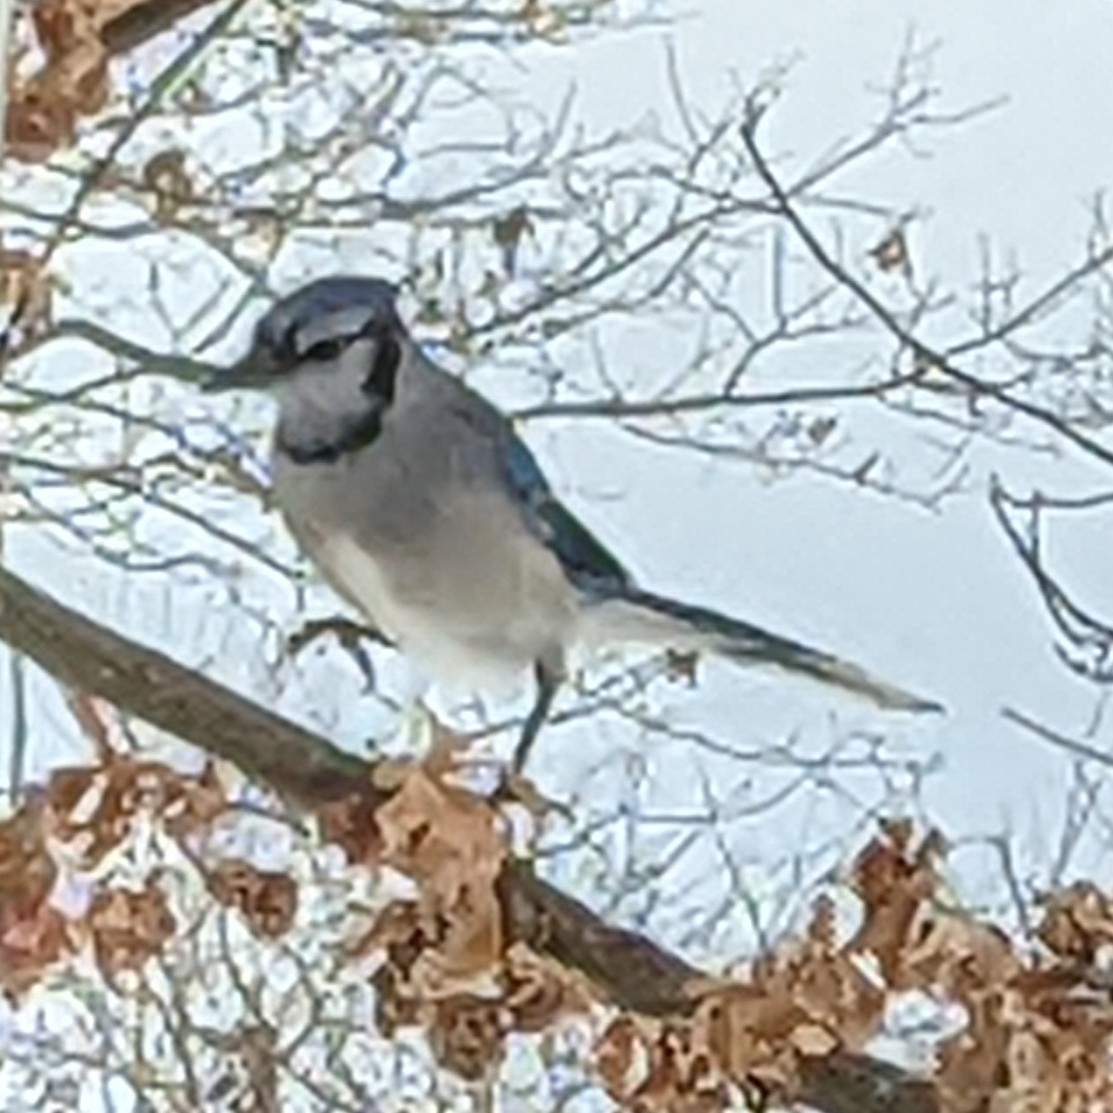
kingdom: Animalia
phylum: Chordata
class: Aves
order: Passeriformes
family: Corvidae
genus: Cyanocitta
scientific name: Cyanocitta cristata
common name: Blue jay
